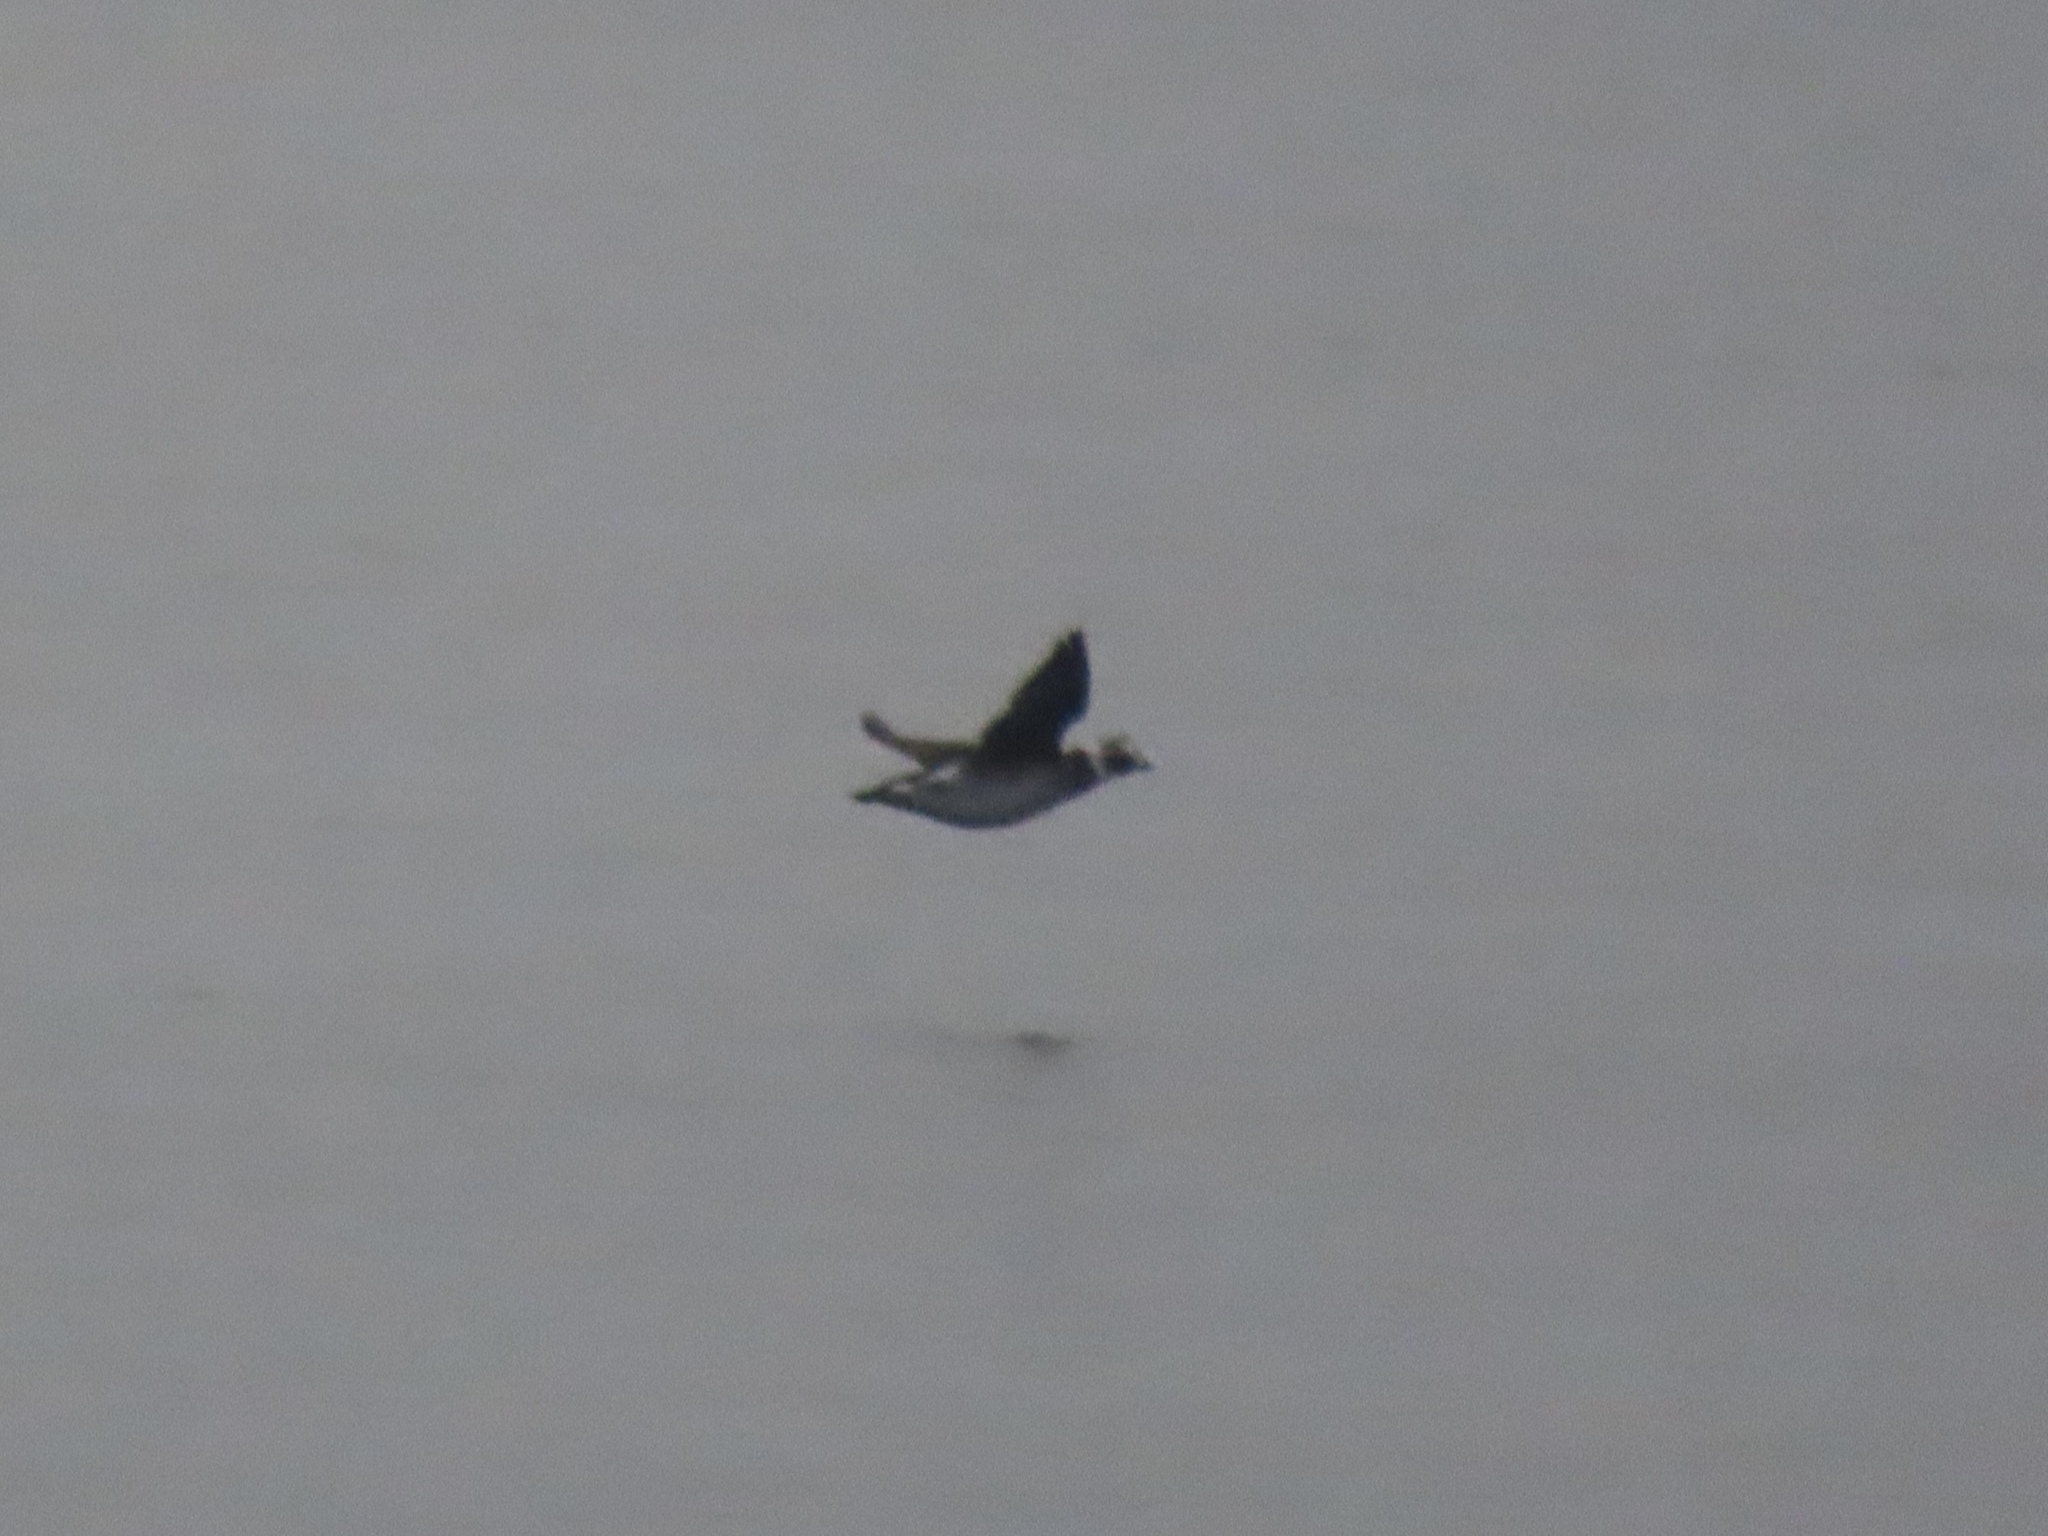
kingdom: Animalia
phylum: Chordata
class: Aves
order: Anseriformes
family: Anatidae
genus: Clangula
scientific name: Clangula hyemalis
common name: Long-tailed duck
